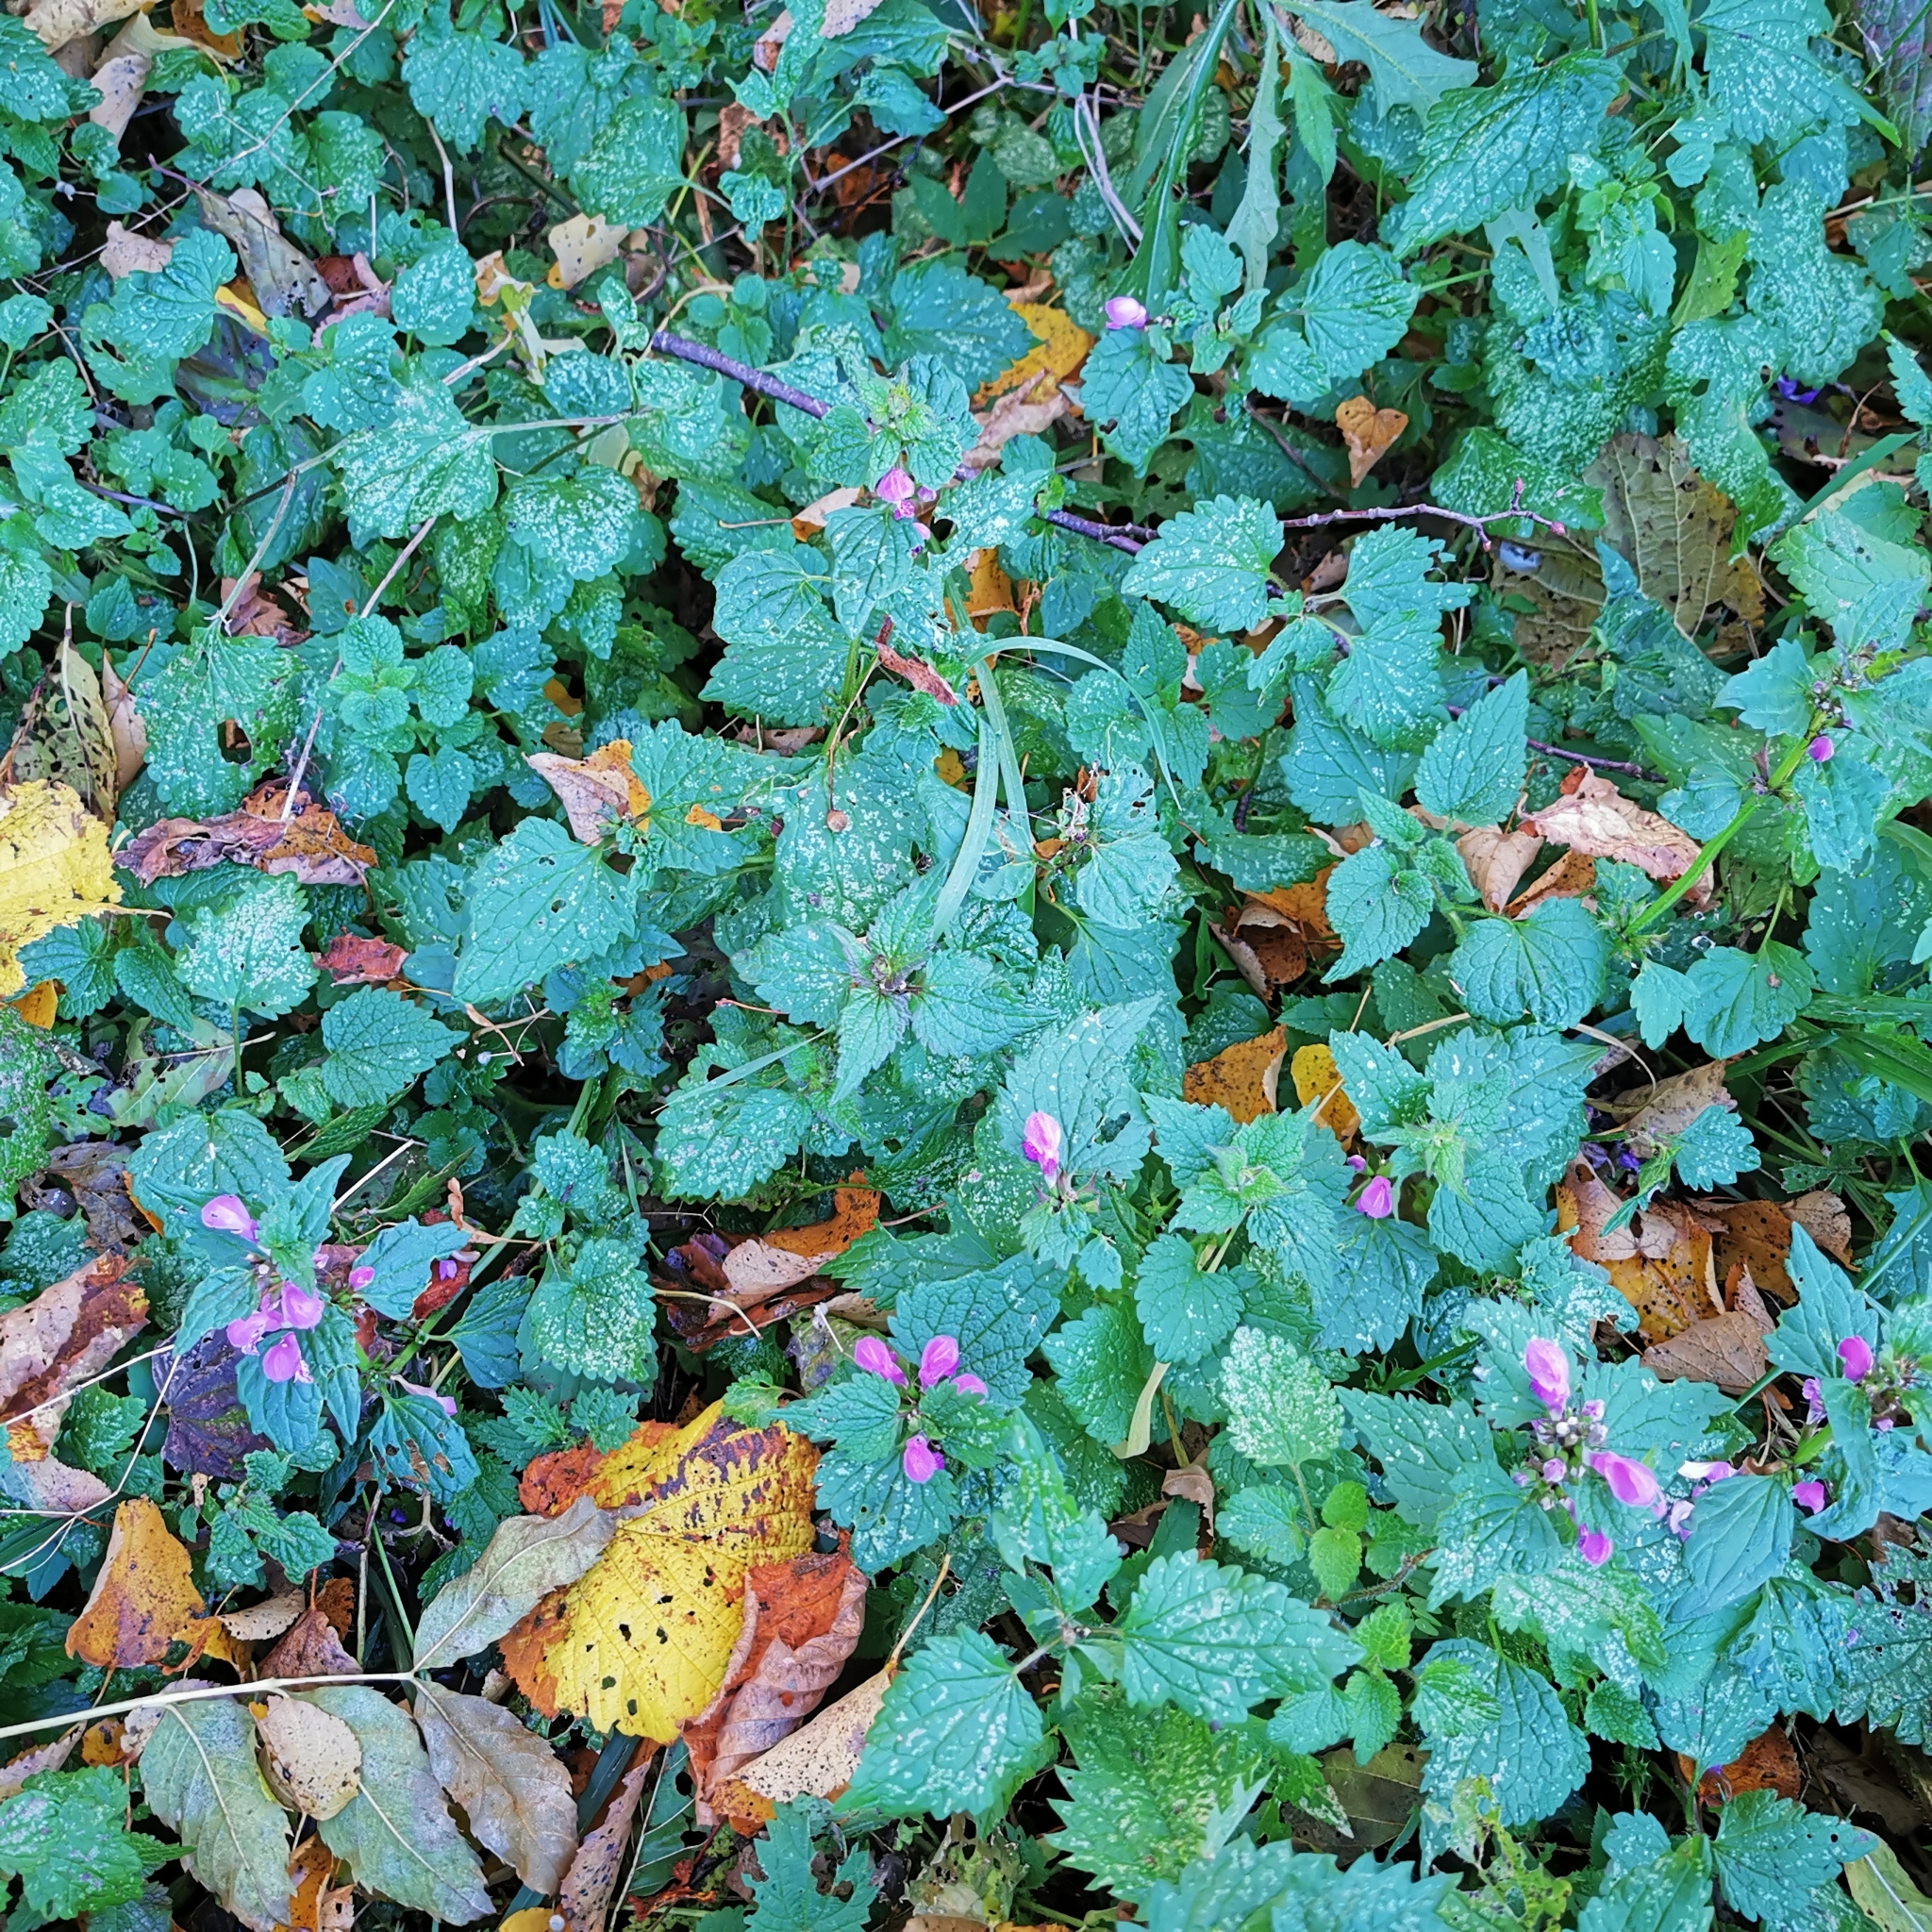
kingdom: Plantae
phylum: Tracheophyta
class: Magnoliopsida
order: Lamiales
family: Lamiaceae
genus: Lamium
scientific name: Lamium maculatum
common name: Spotted dead-nettle
